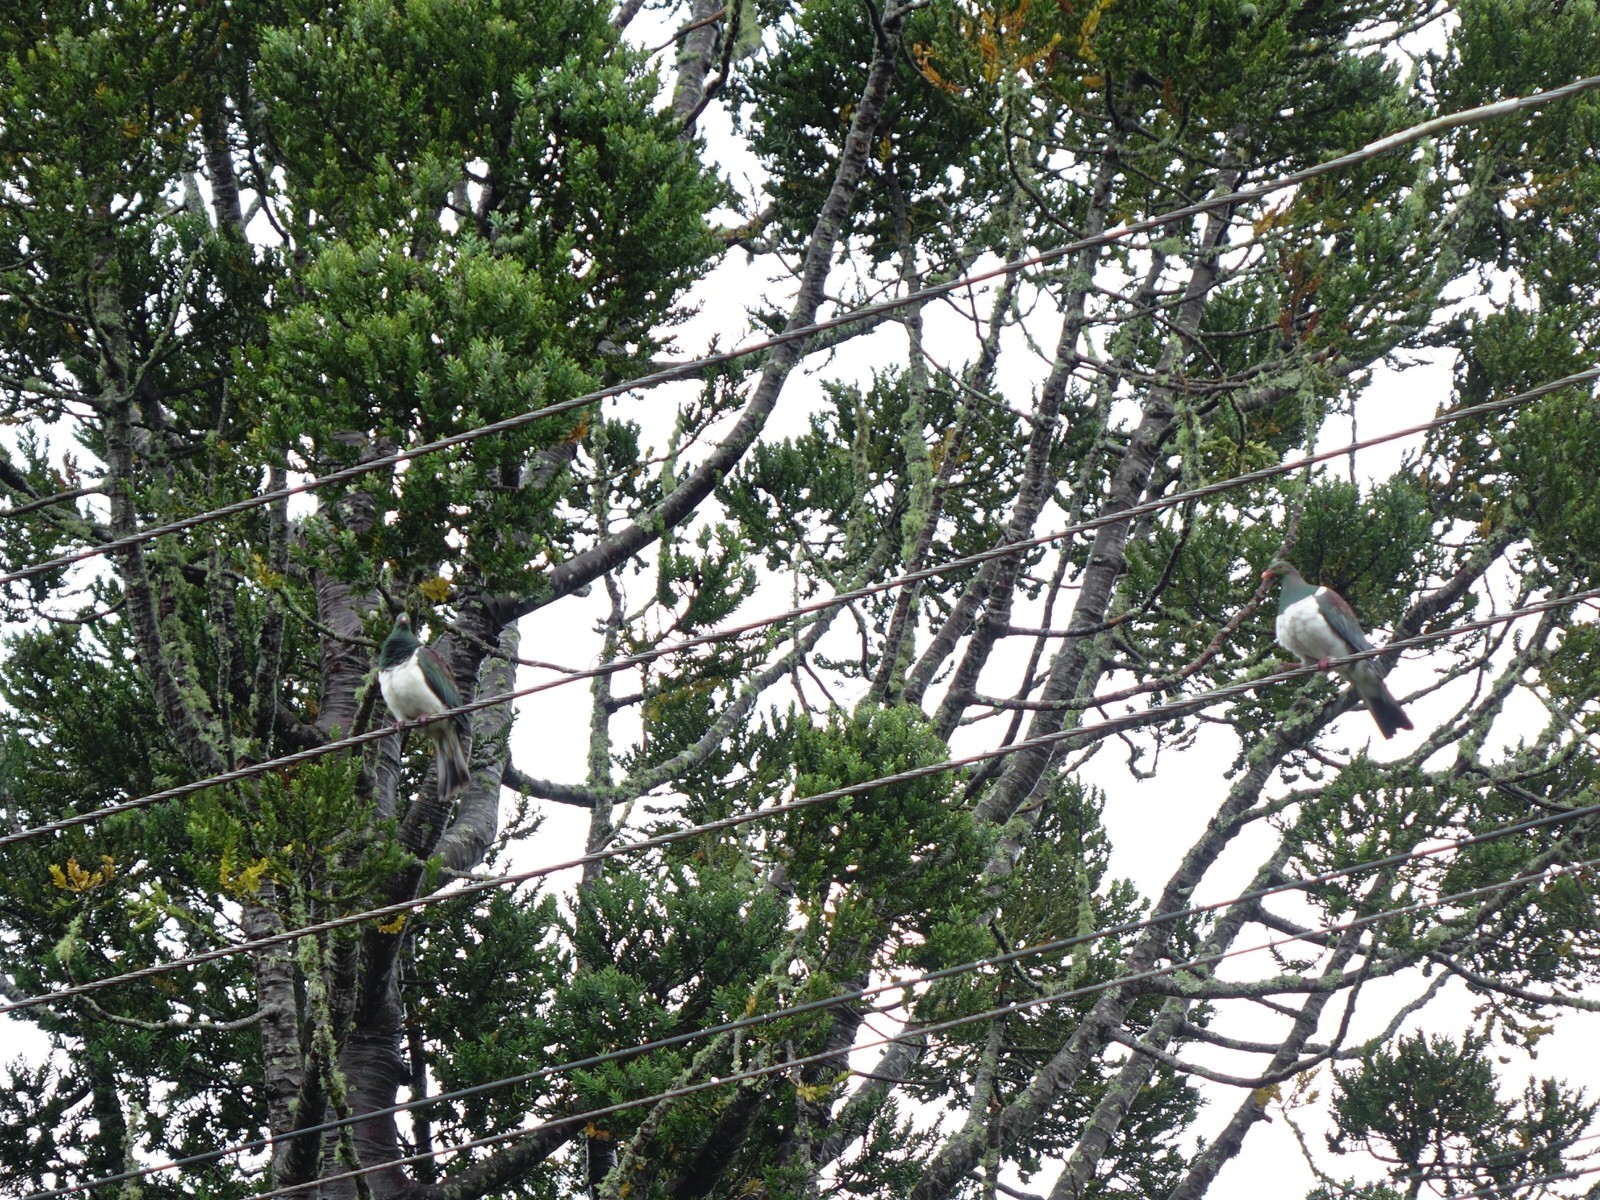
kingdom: Animalia
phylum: Chordata
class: Aves
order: Columbiformes
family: Columbidae
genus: Hemiphaga
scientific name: Hemiphaga novaeseelandiae
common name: New zealand pigeon
